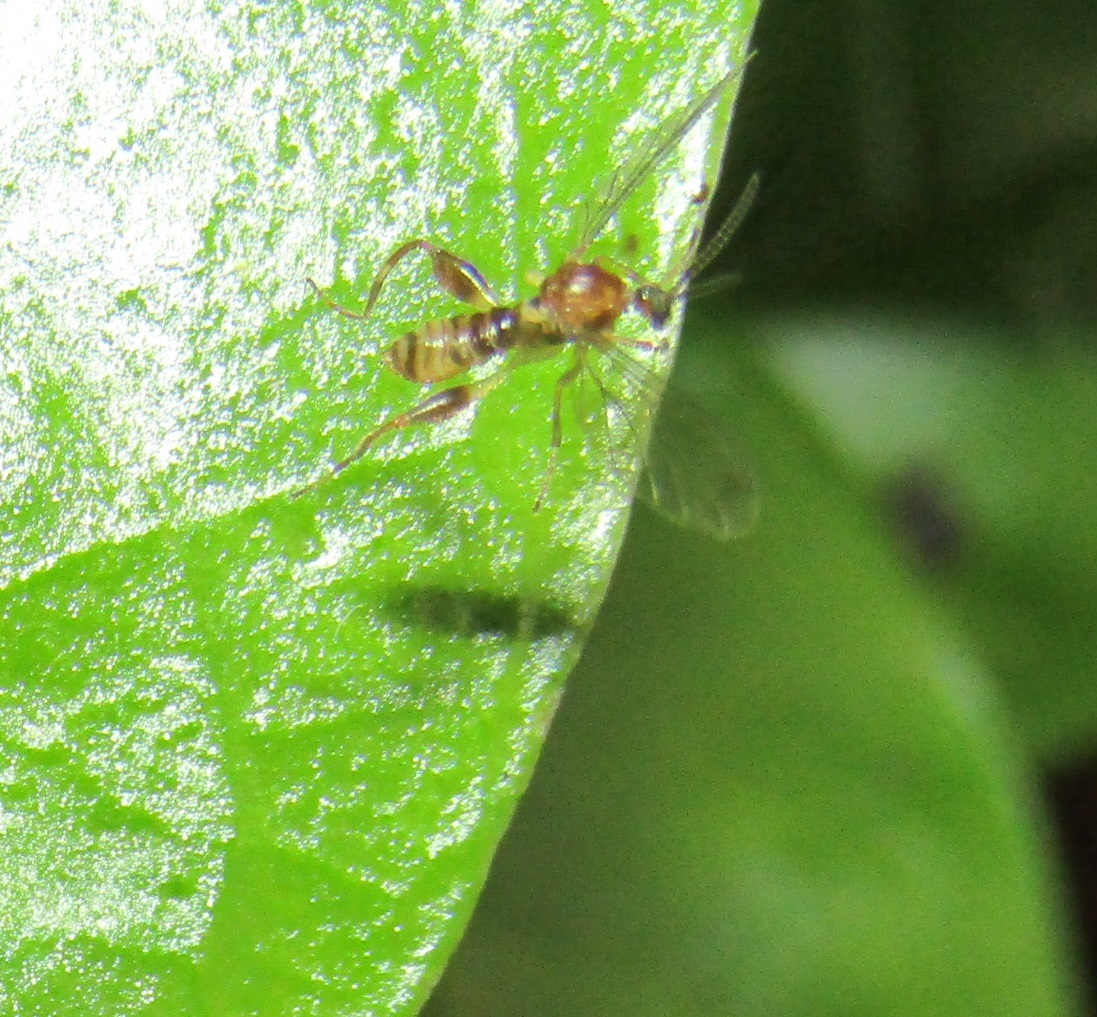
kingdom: Animalia
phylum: Arthropoda
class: Insecta
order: Diptera
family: Canthyloscelididae
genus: Canthyloscelis
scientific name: Canthyloscelis antennata
